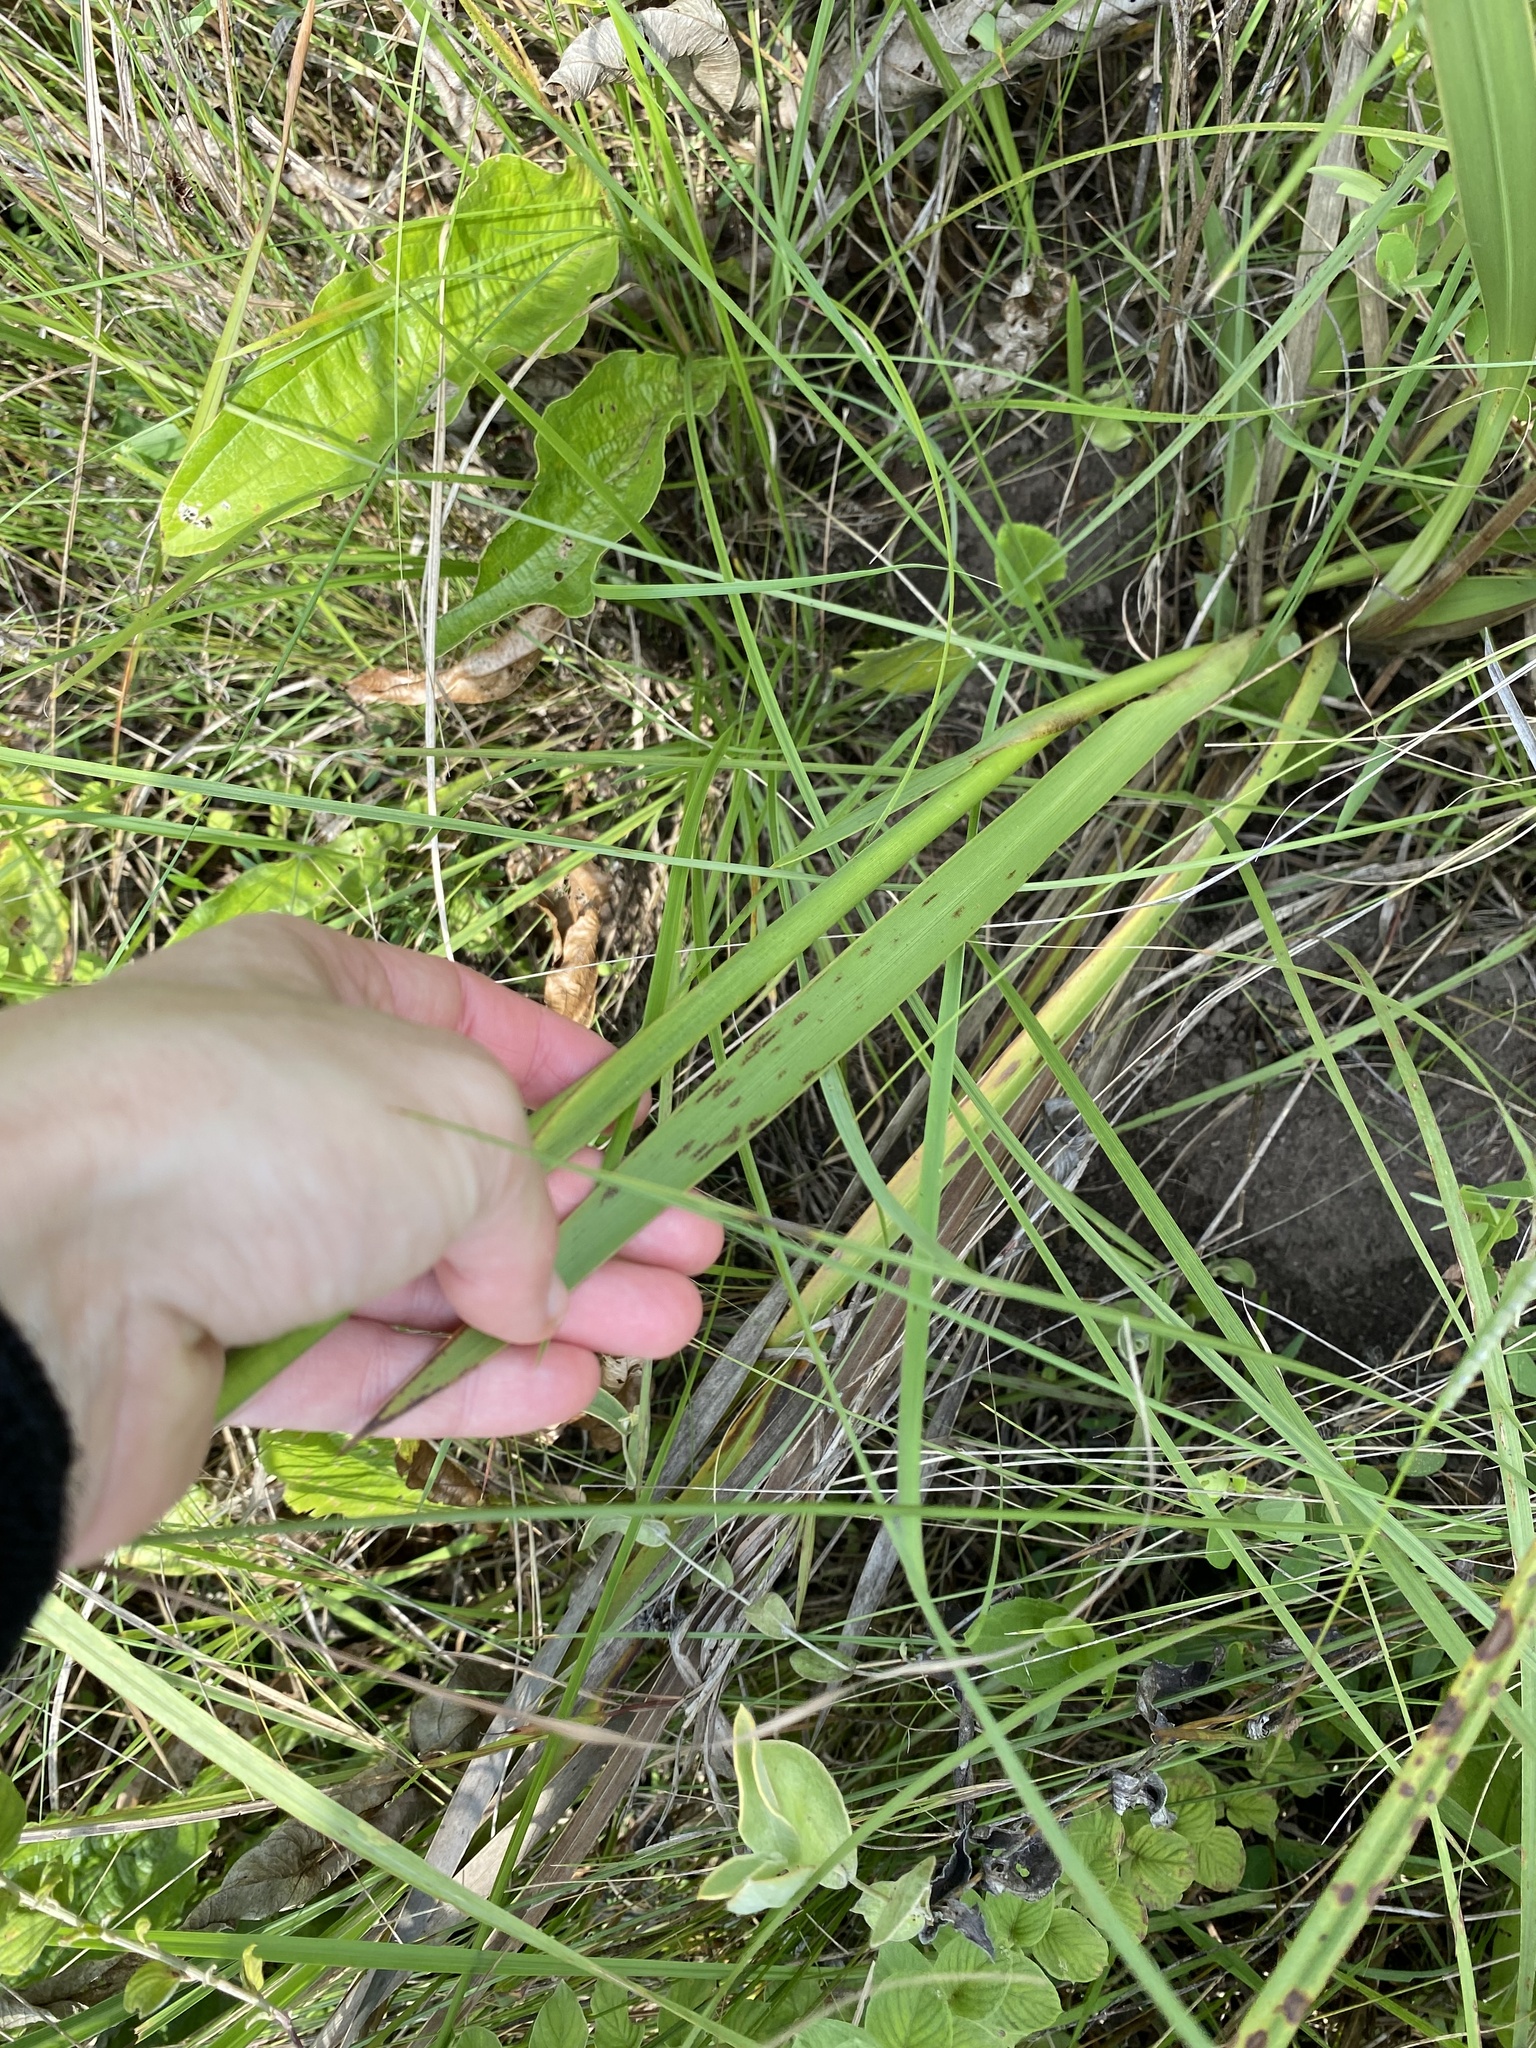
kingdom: Plantae
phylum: Tracheophyta
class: Liliopsida
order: Asparagales
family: Iridaceae
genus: Watsonia
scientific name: Watsonia densiflora
